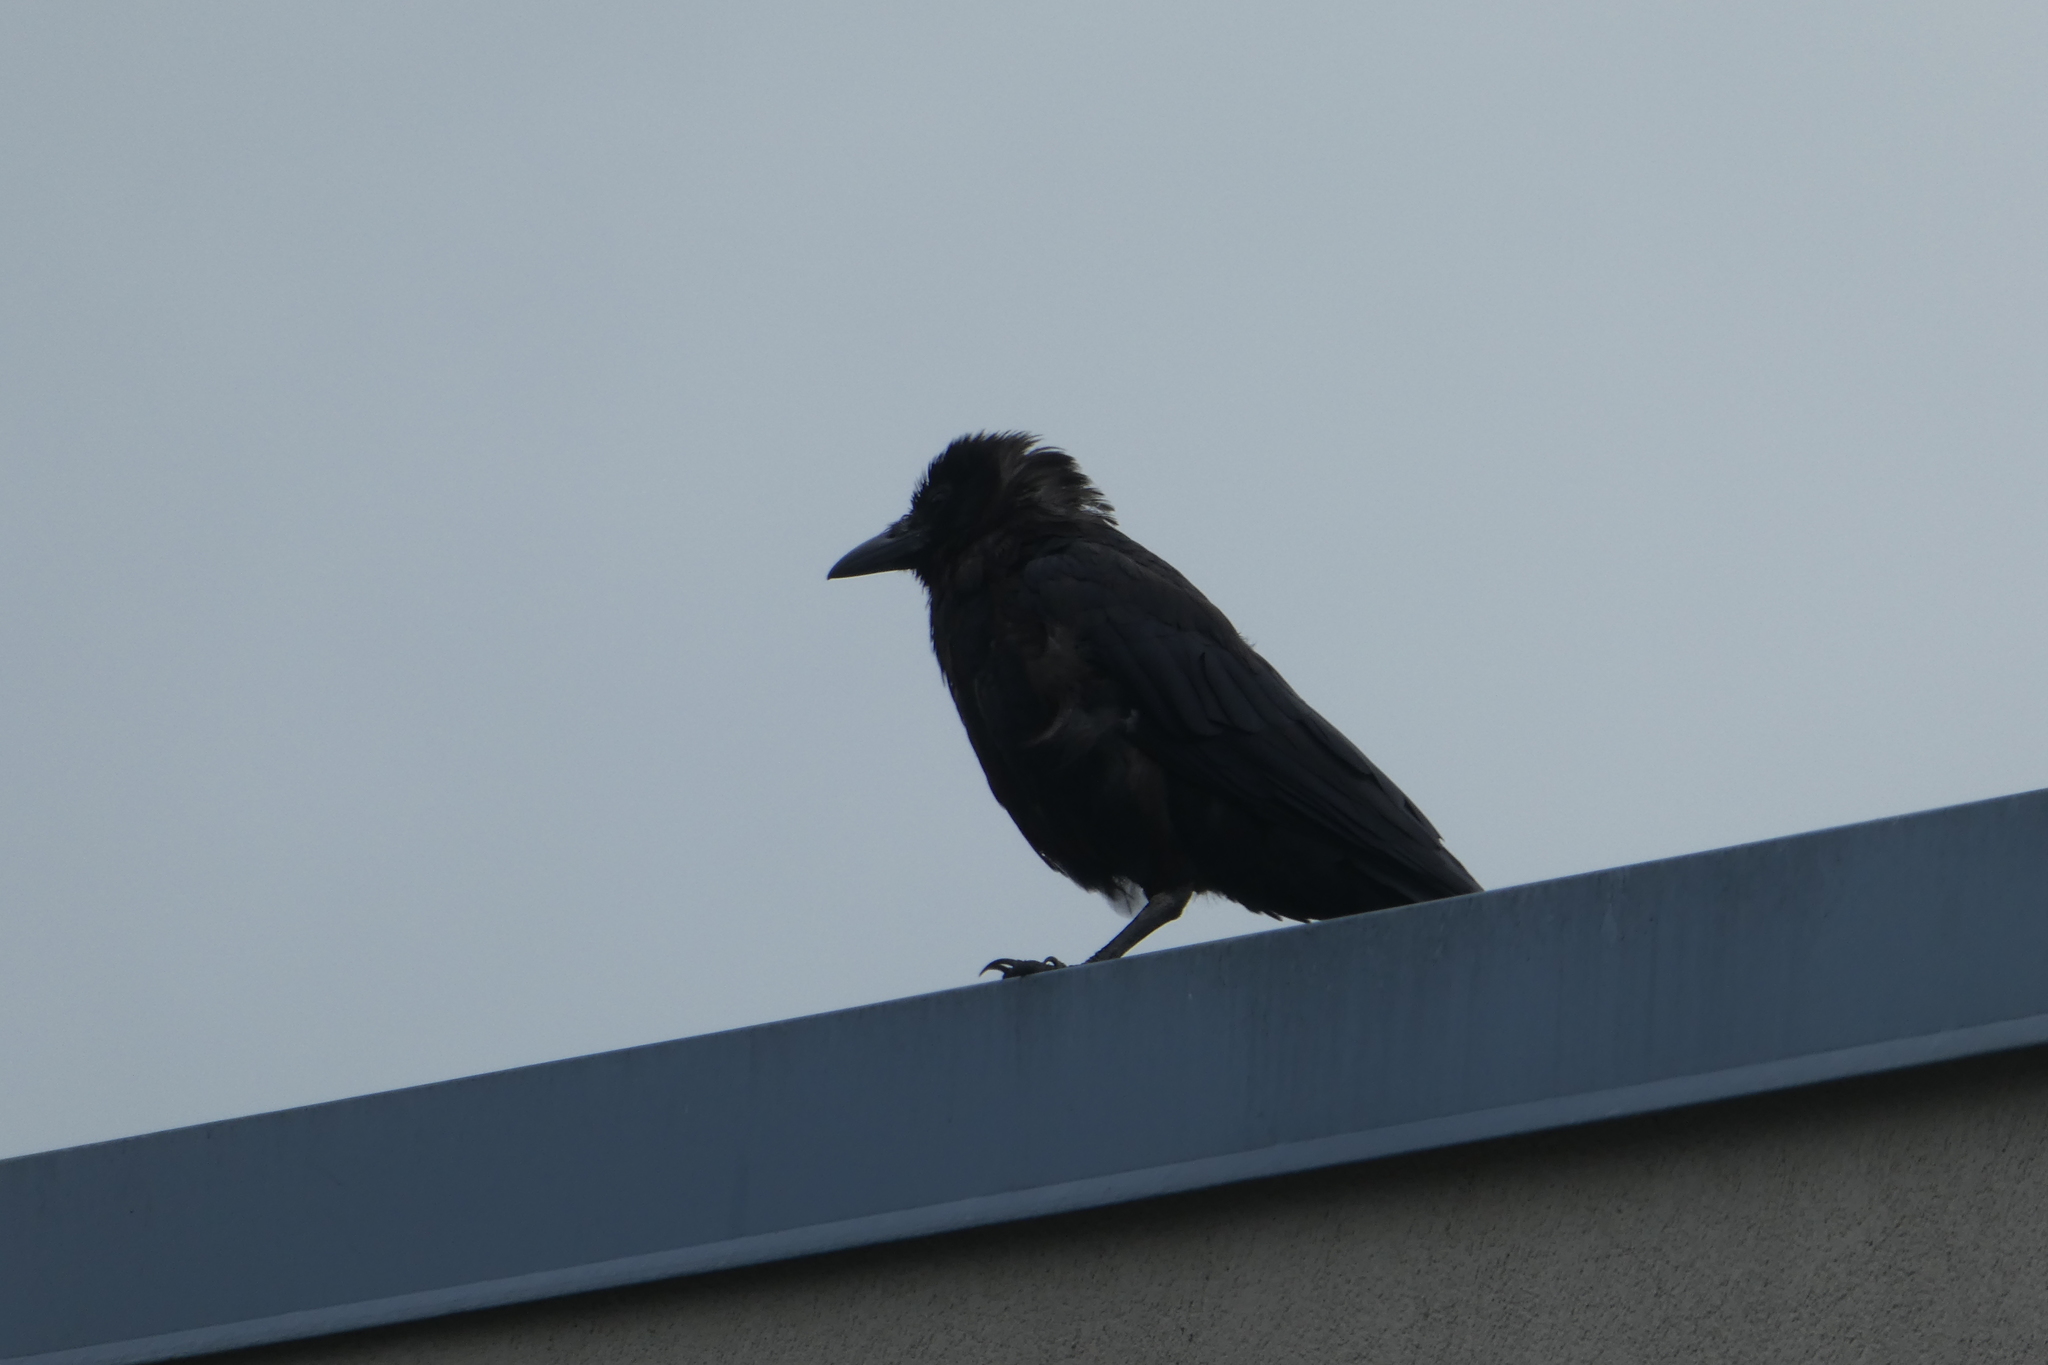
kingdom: Animalia
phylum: Chordata
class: Aves
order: Passeriformes
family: Corvidae
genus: Corvus
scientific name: Corvus brachyrhynchos
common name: American crow
